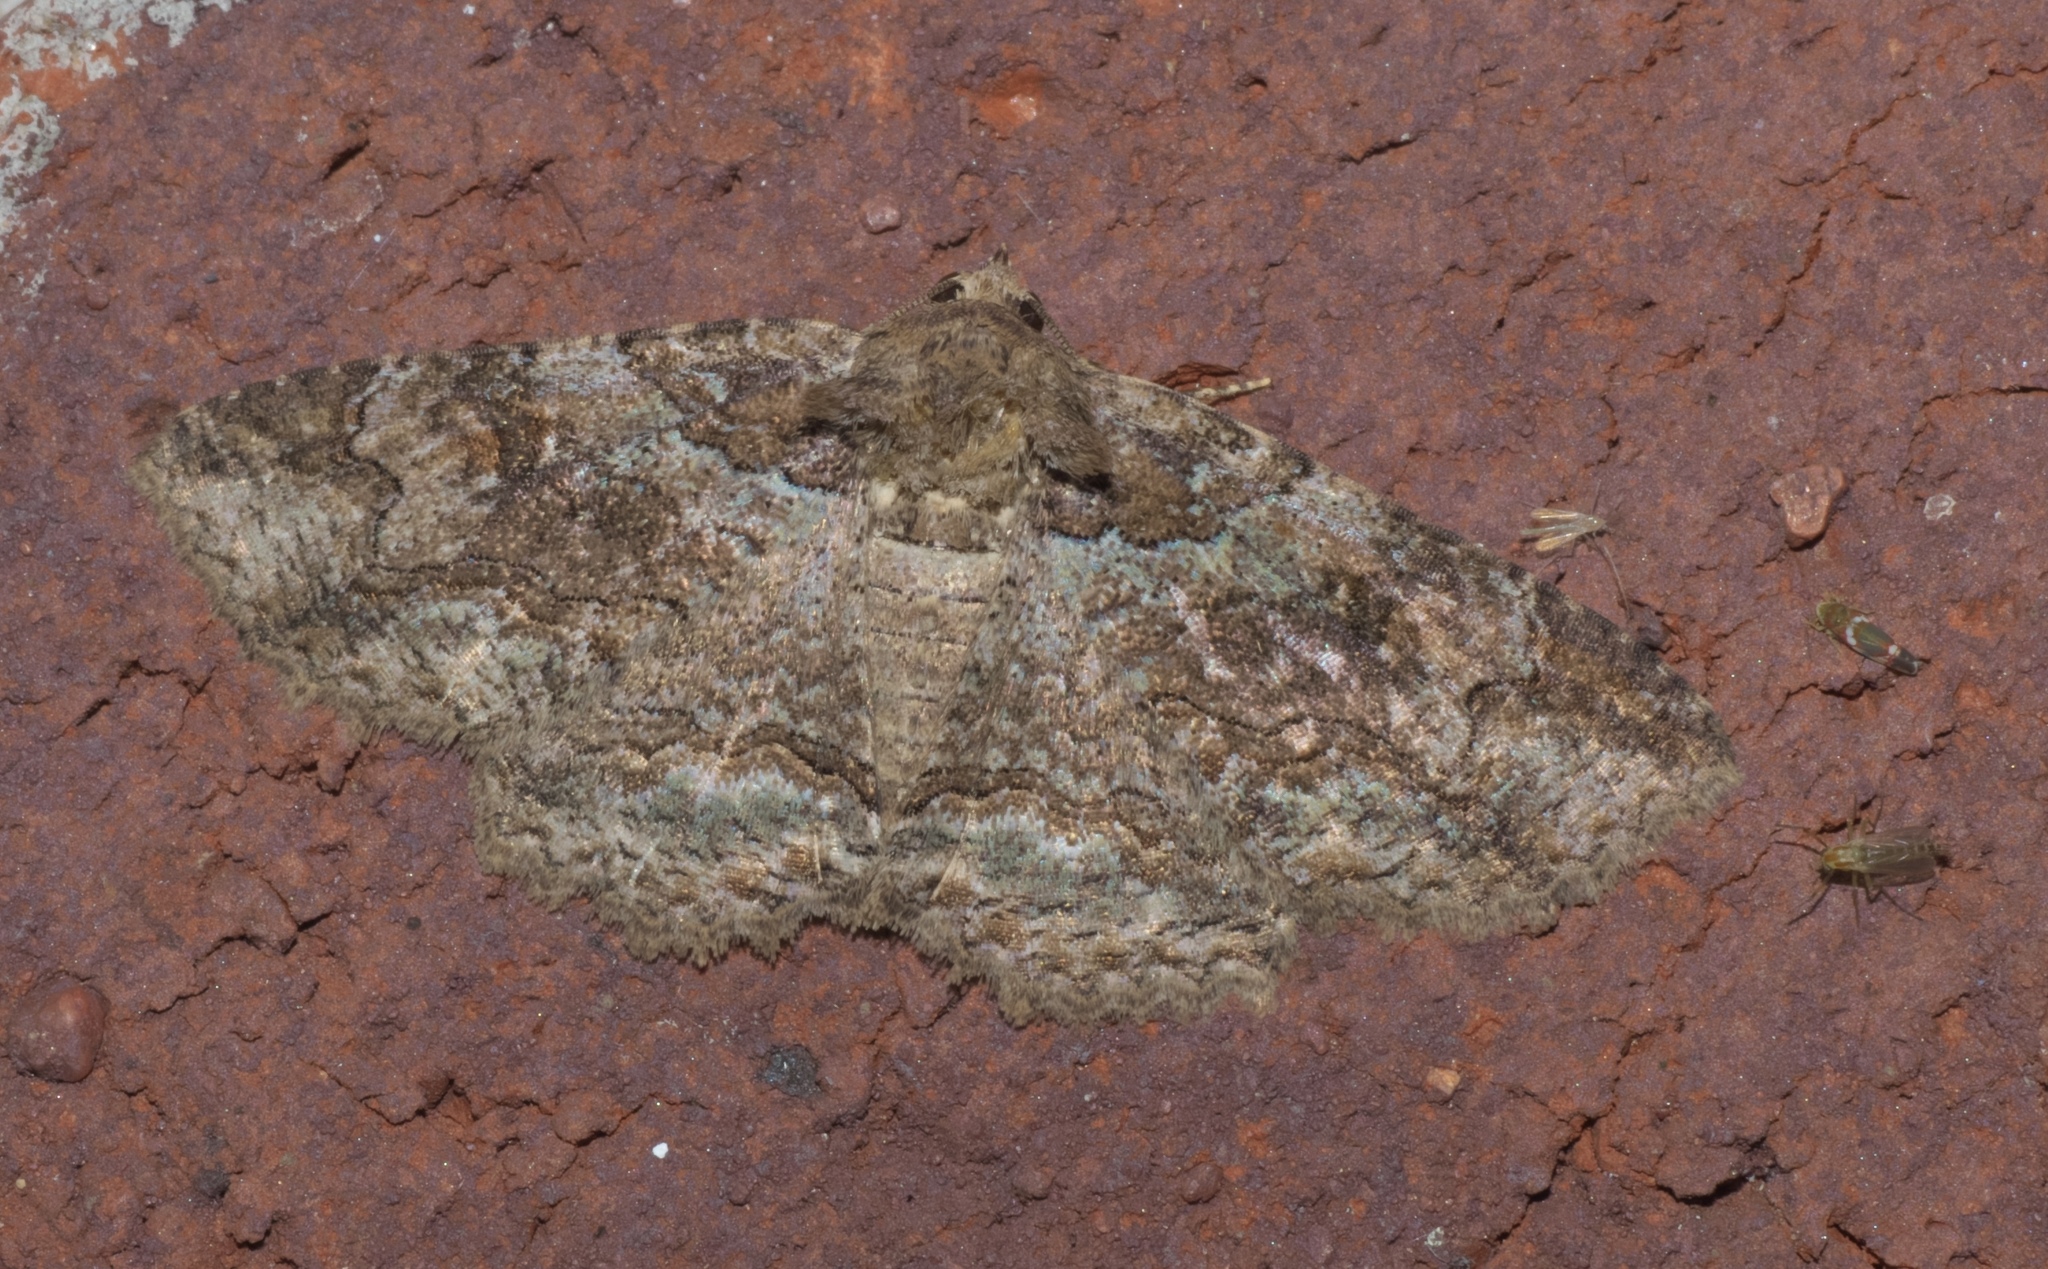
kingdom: Animalia
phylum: Arthropoda
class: Insecta
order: Lepidoptera
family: Noctuidae
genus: Schinia
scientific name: Schinia rivulosa
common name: Scarce meal-moth
